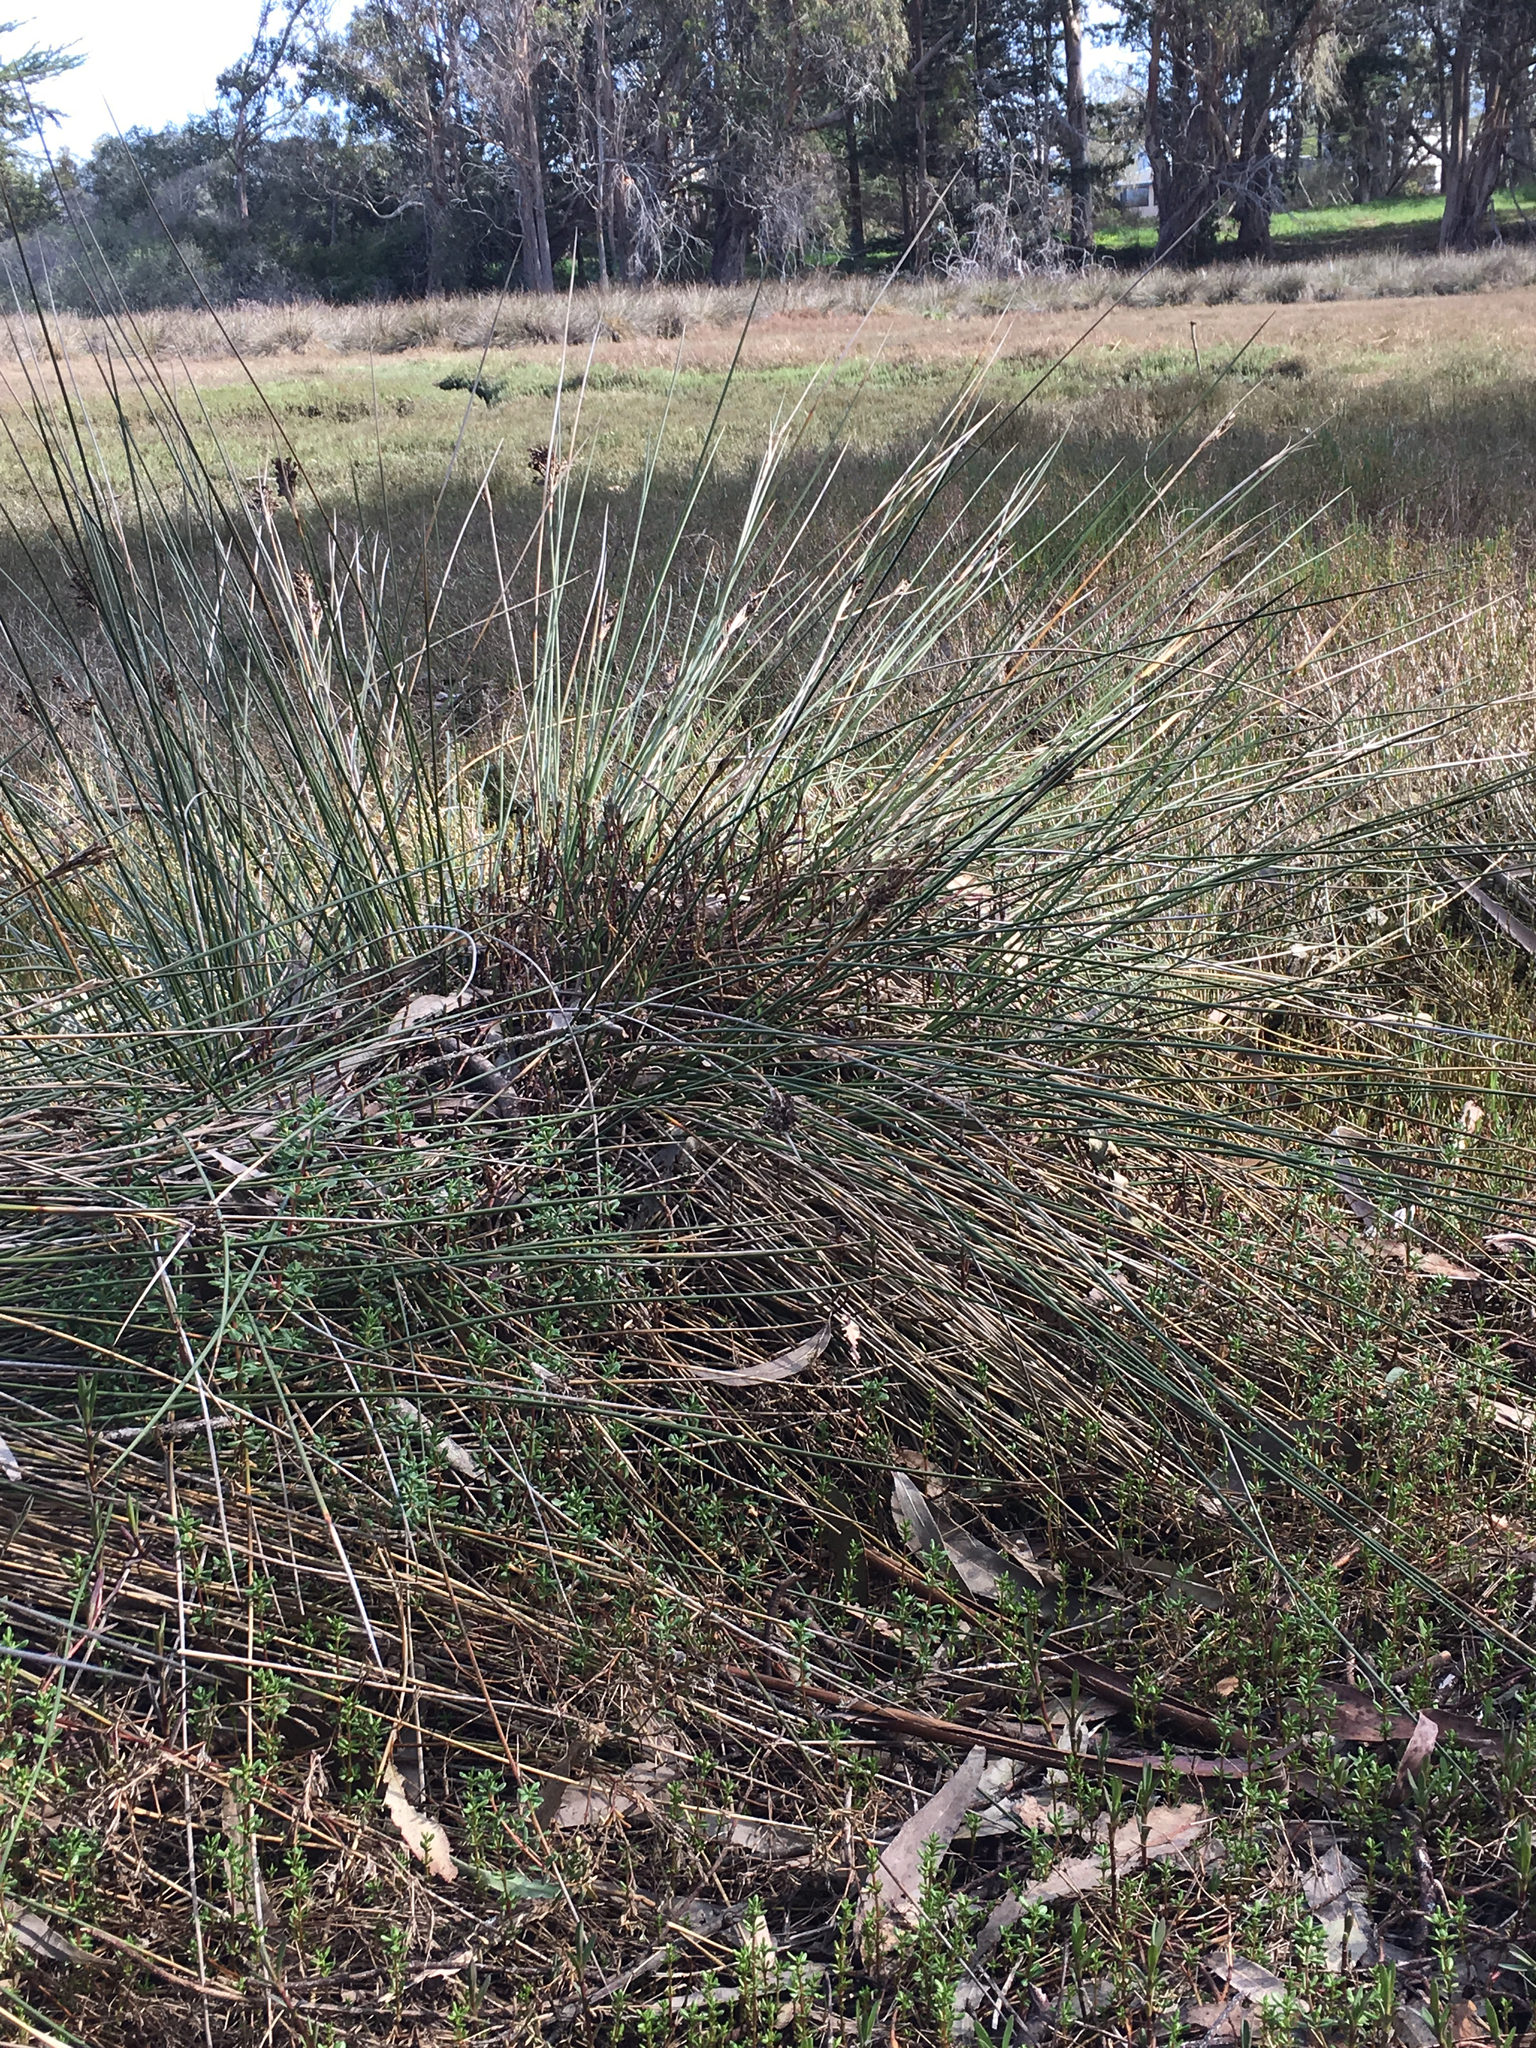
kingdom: Plantae
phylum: Tracheophyta
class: Liliopsida
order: Poales
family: Juncaceae
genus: Juncus
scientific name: Juncus acutus
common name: Sharp rush
